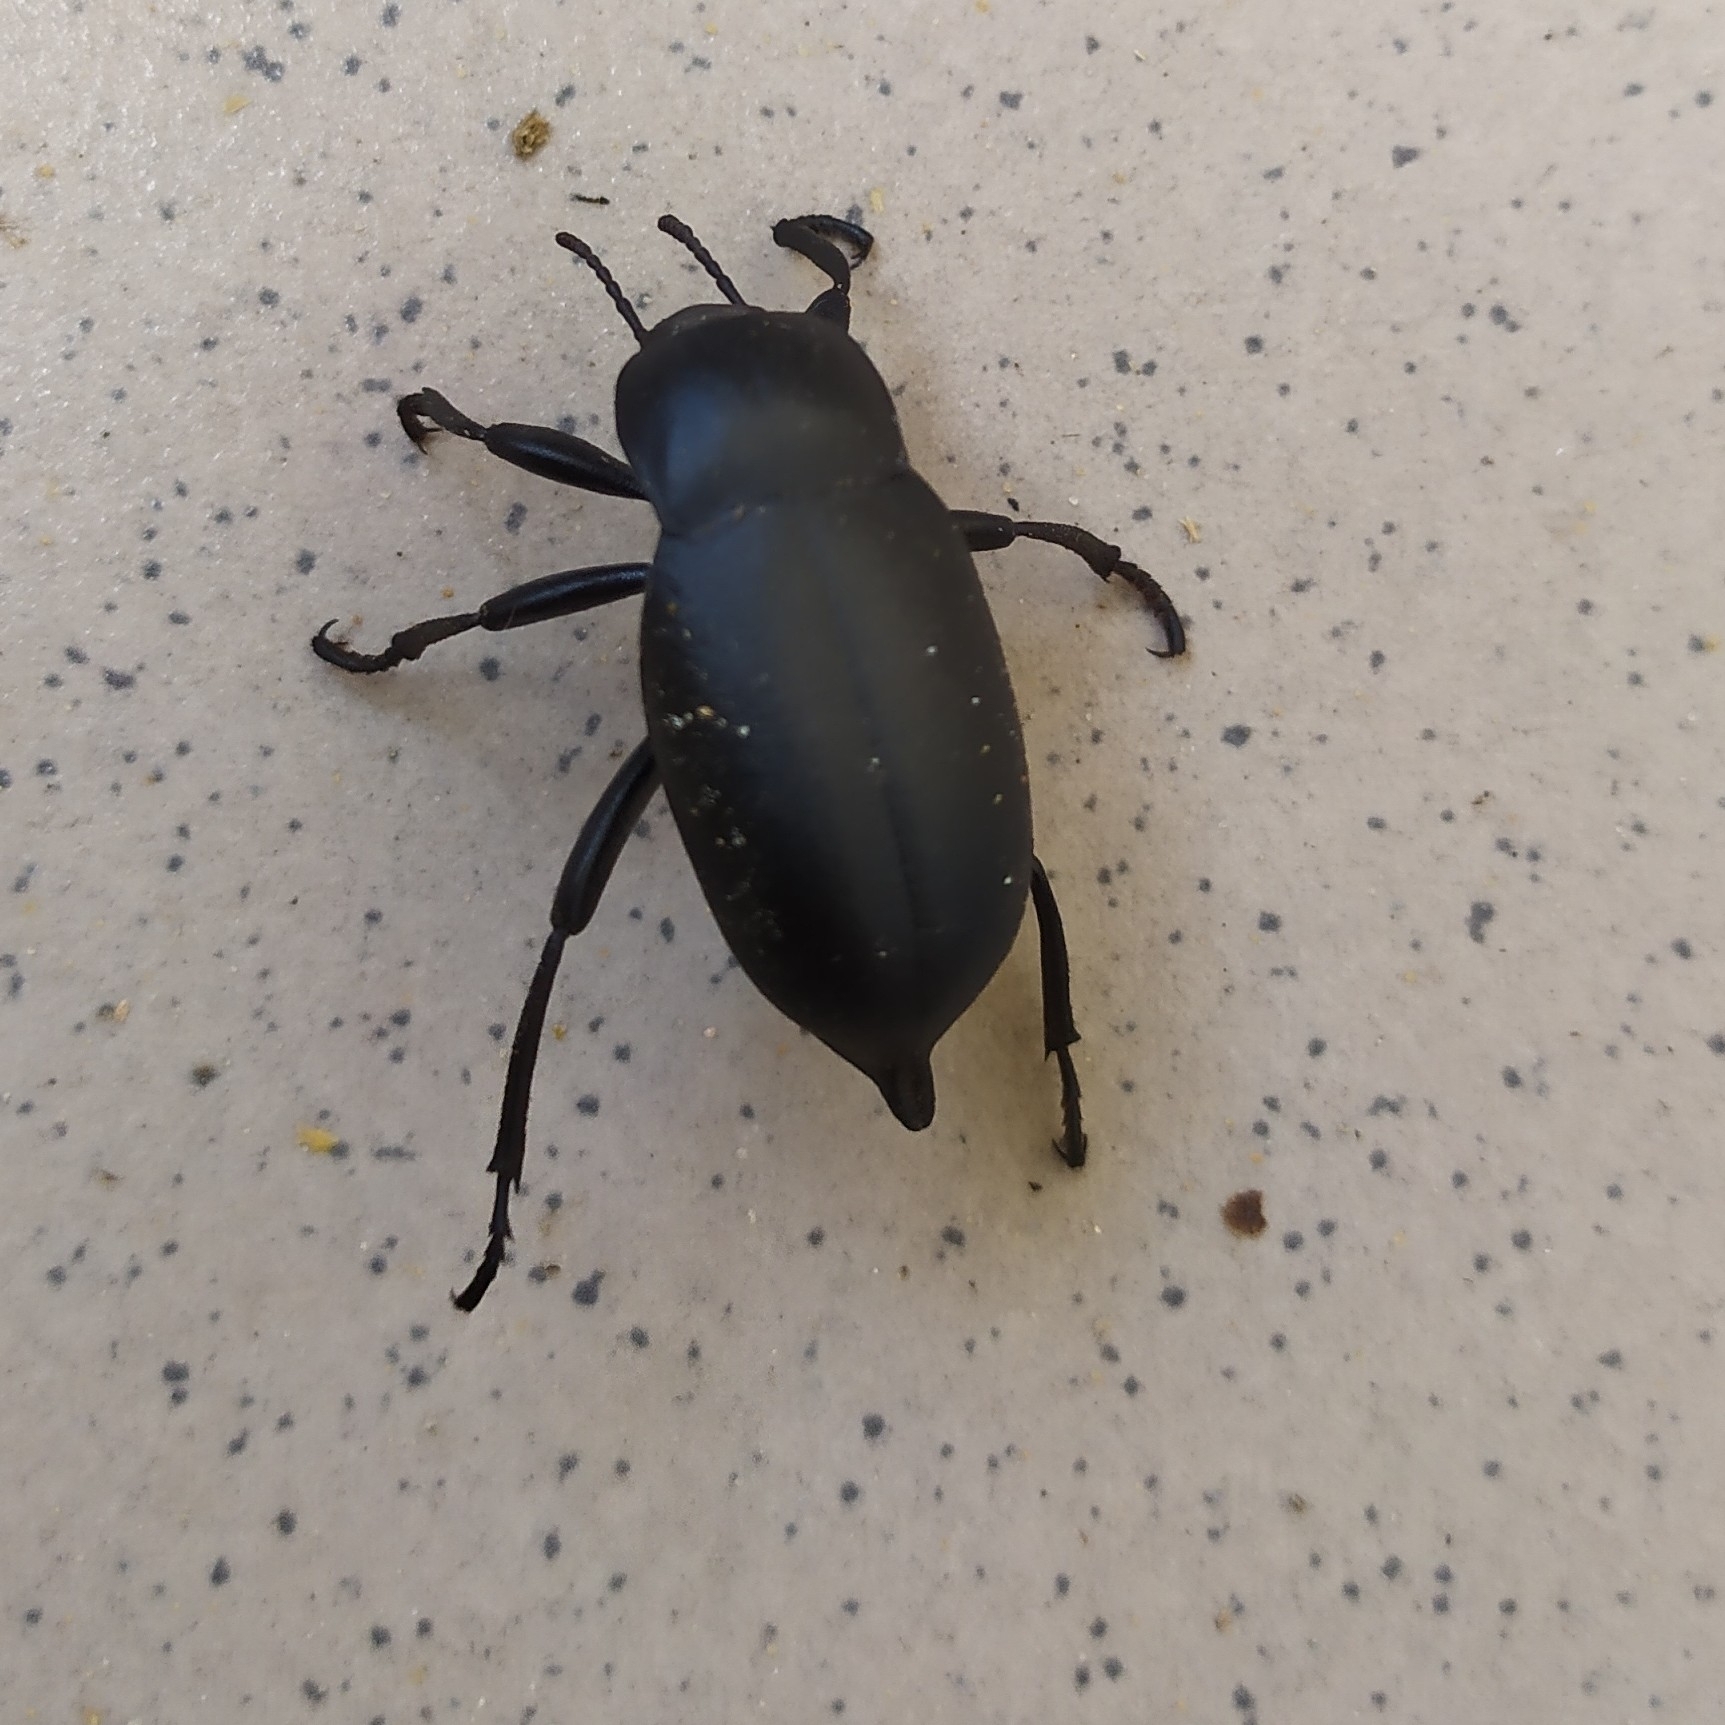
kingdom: Animalia
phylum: Arthropoda
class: Insecta
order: Coleoptera
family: Tenebrionidae
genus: Blaps
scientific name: Blaps lethifera
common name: Darkling beetle
